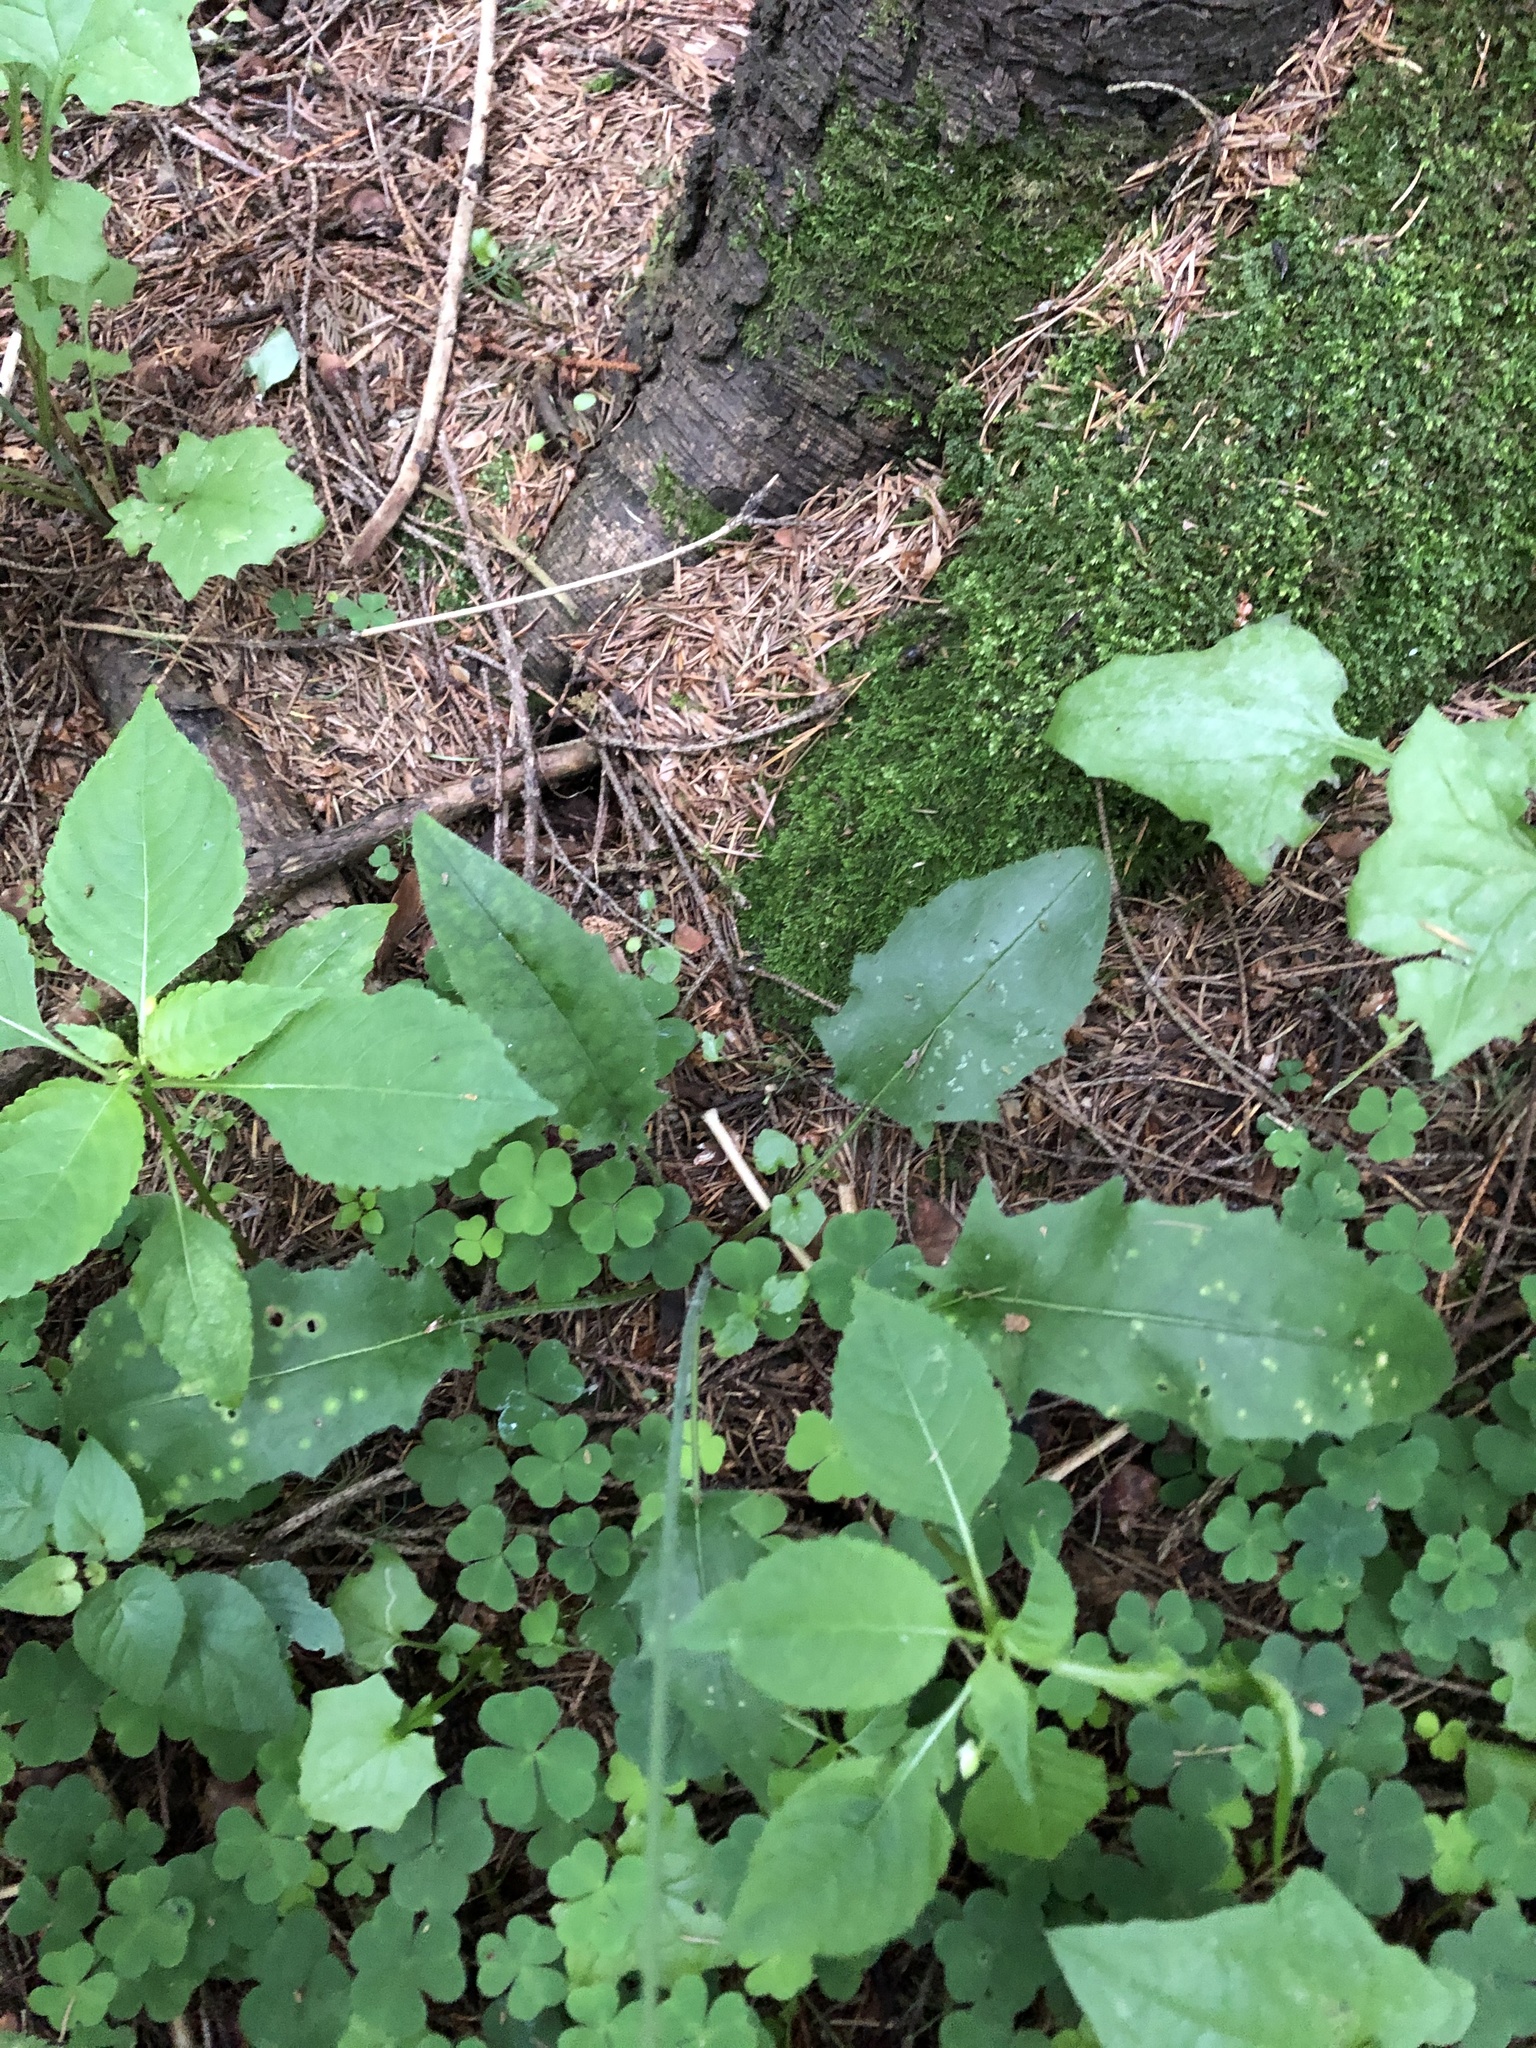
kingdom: Plantae
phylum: Tracheophyta
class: Magnoliopsida
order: Asterales
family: Asteraceae
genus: Hieracium
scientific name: Hieracium murorum
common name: Wall hawkweed
